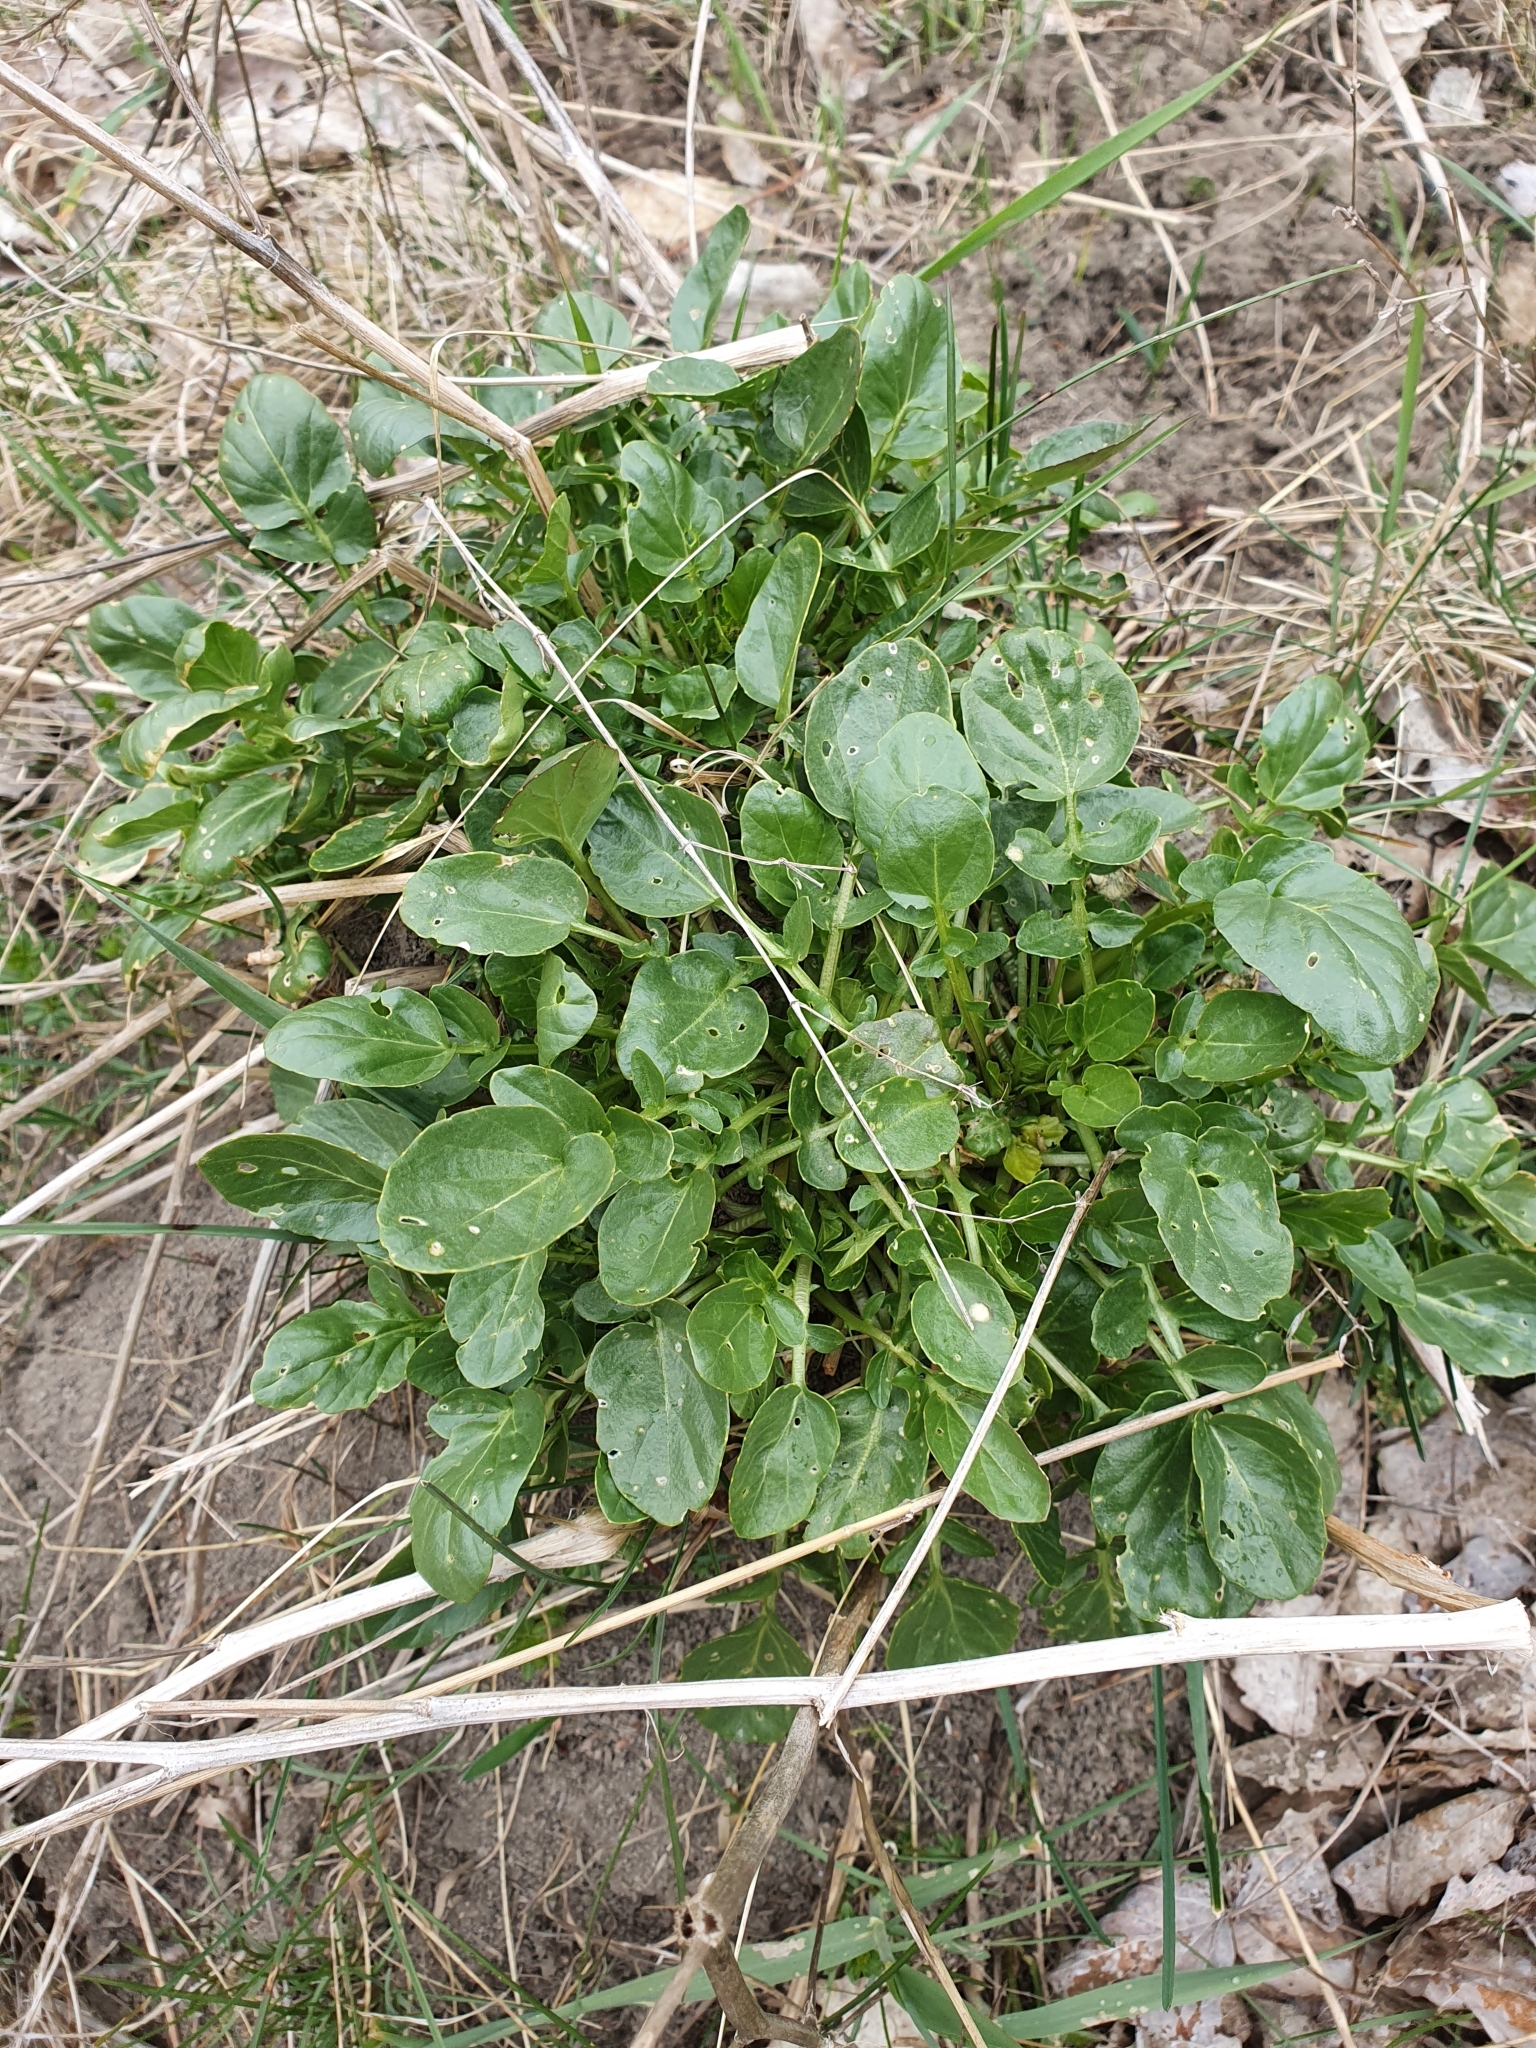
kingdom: Plantae
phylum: Tracheophyta
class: Magnoliopsida
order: Brassicales
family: Brassicaceae
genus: Barbarea
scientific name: Barbarea vulgaris
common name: Cressy-greens
